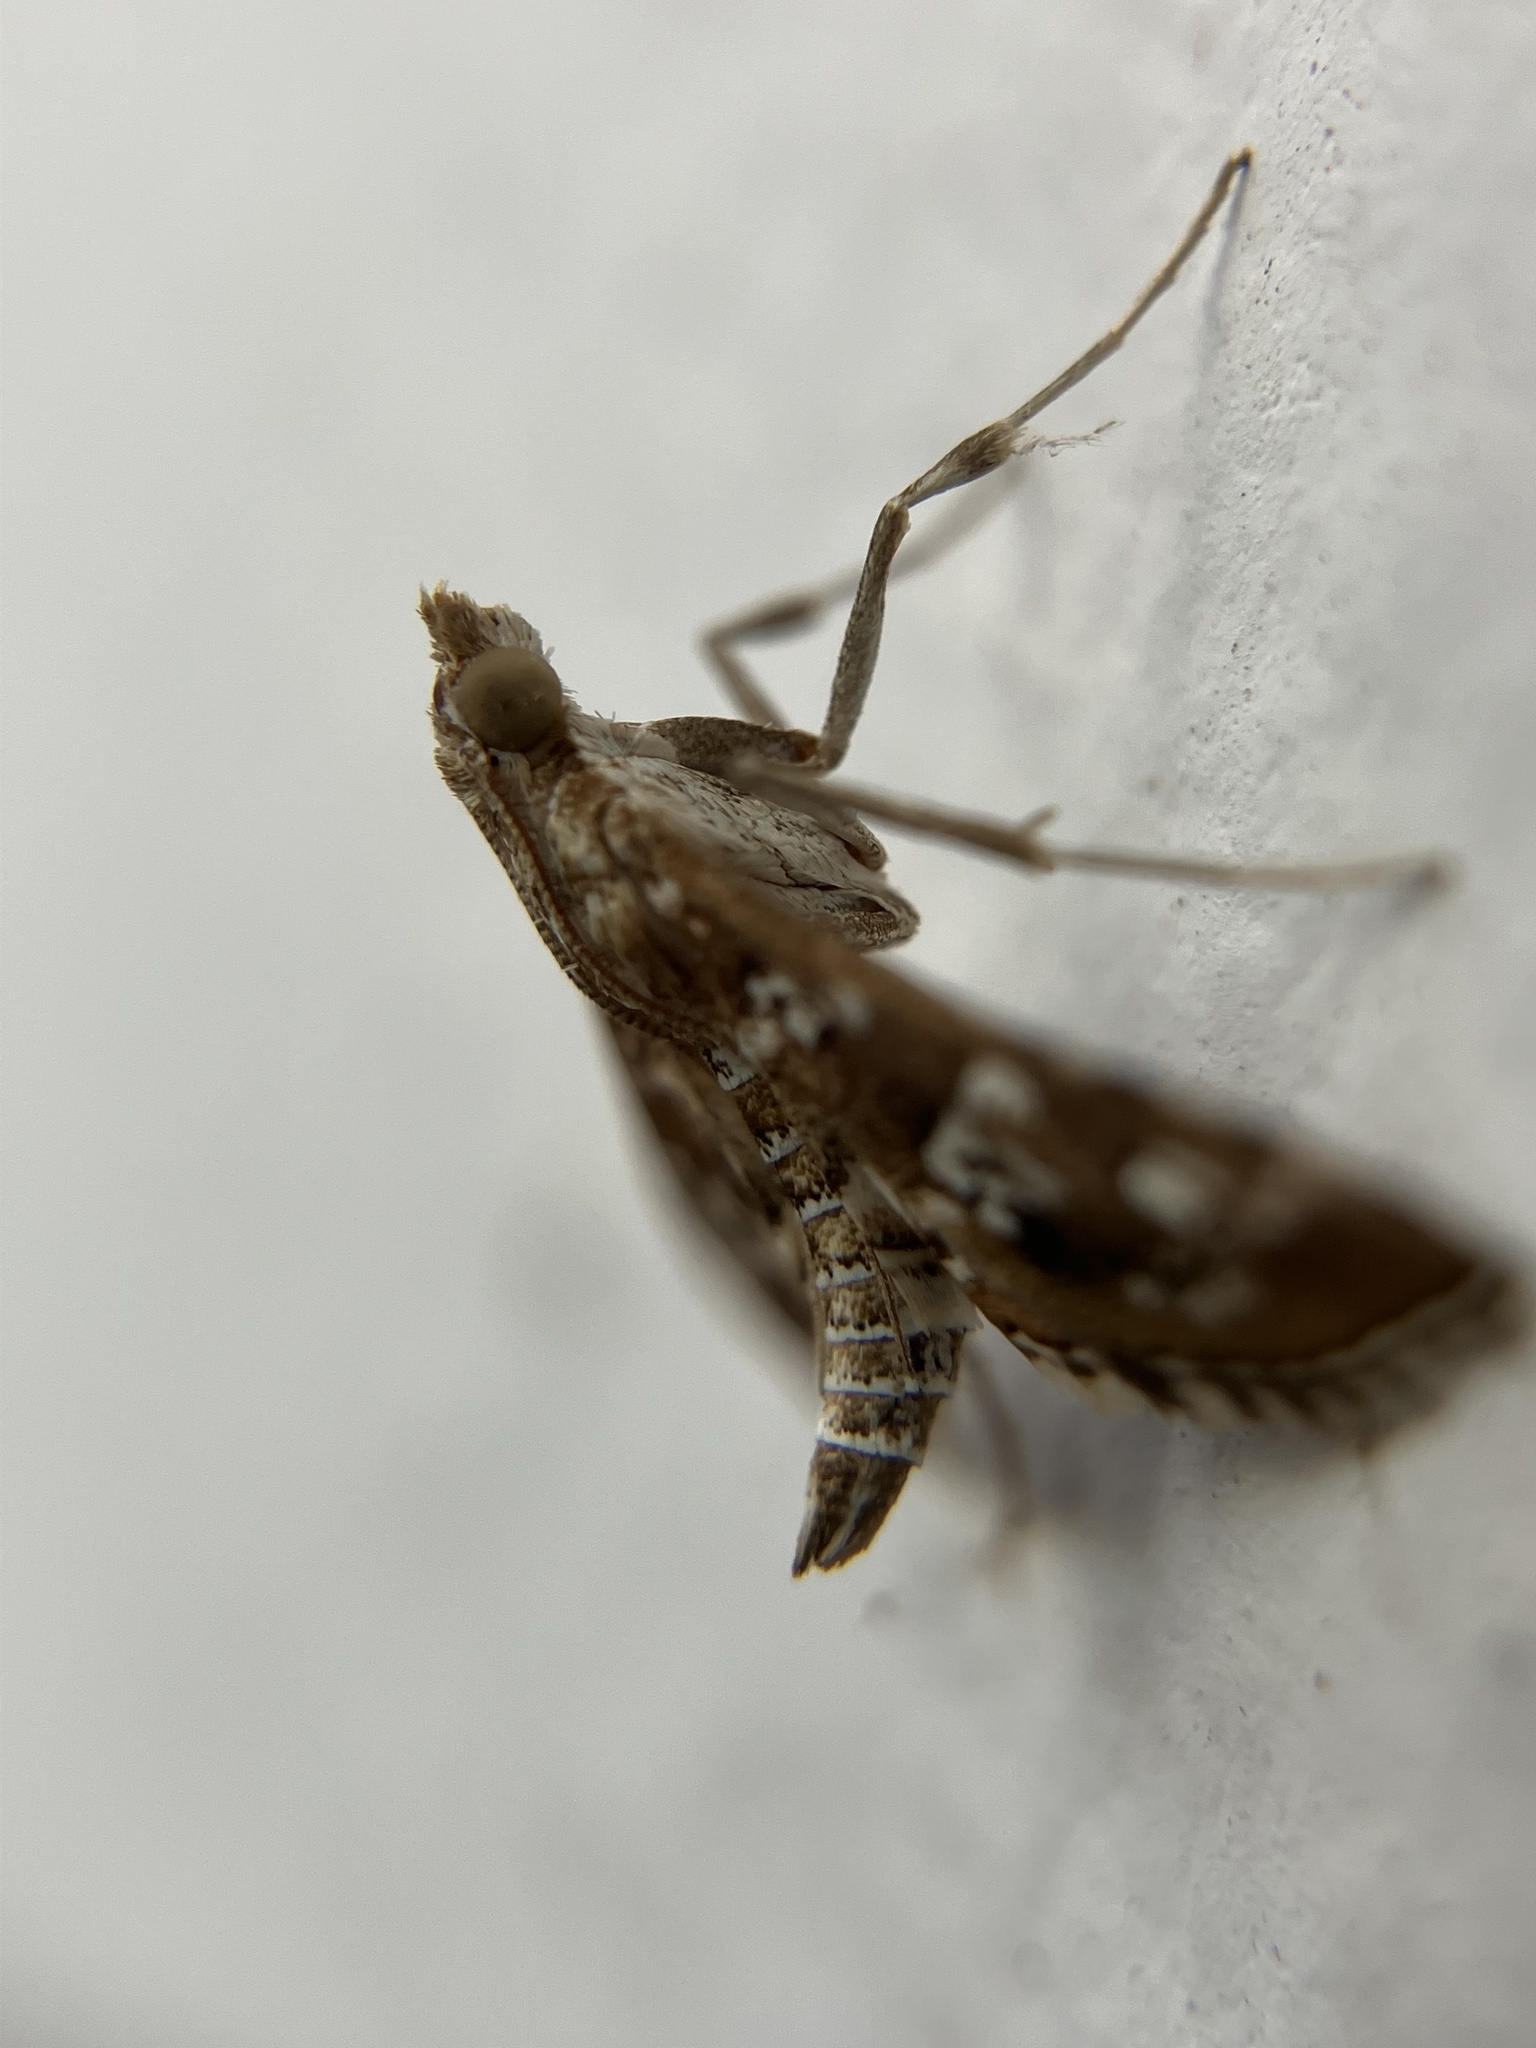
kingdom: Animalia
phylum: Arthropoda
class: Insecta
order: Lepidoptera
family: Crambidae
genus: Sameodes
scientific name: Sameodes cancellalis
